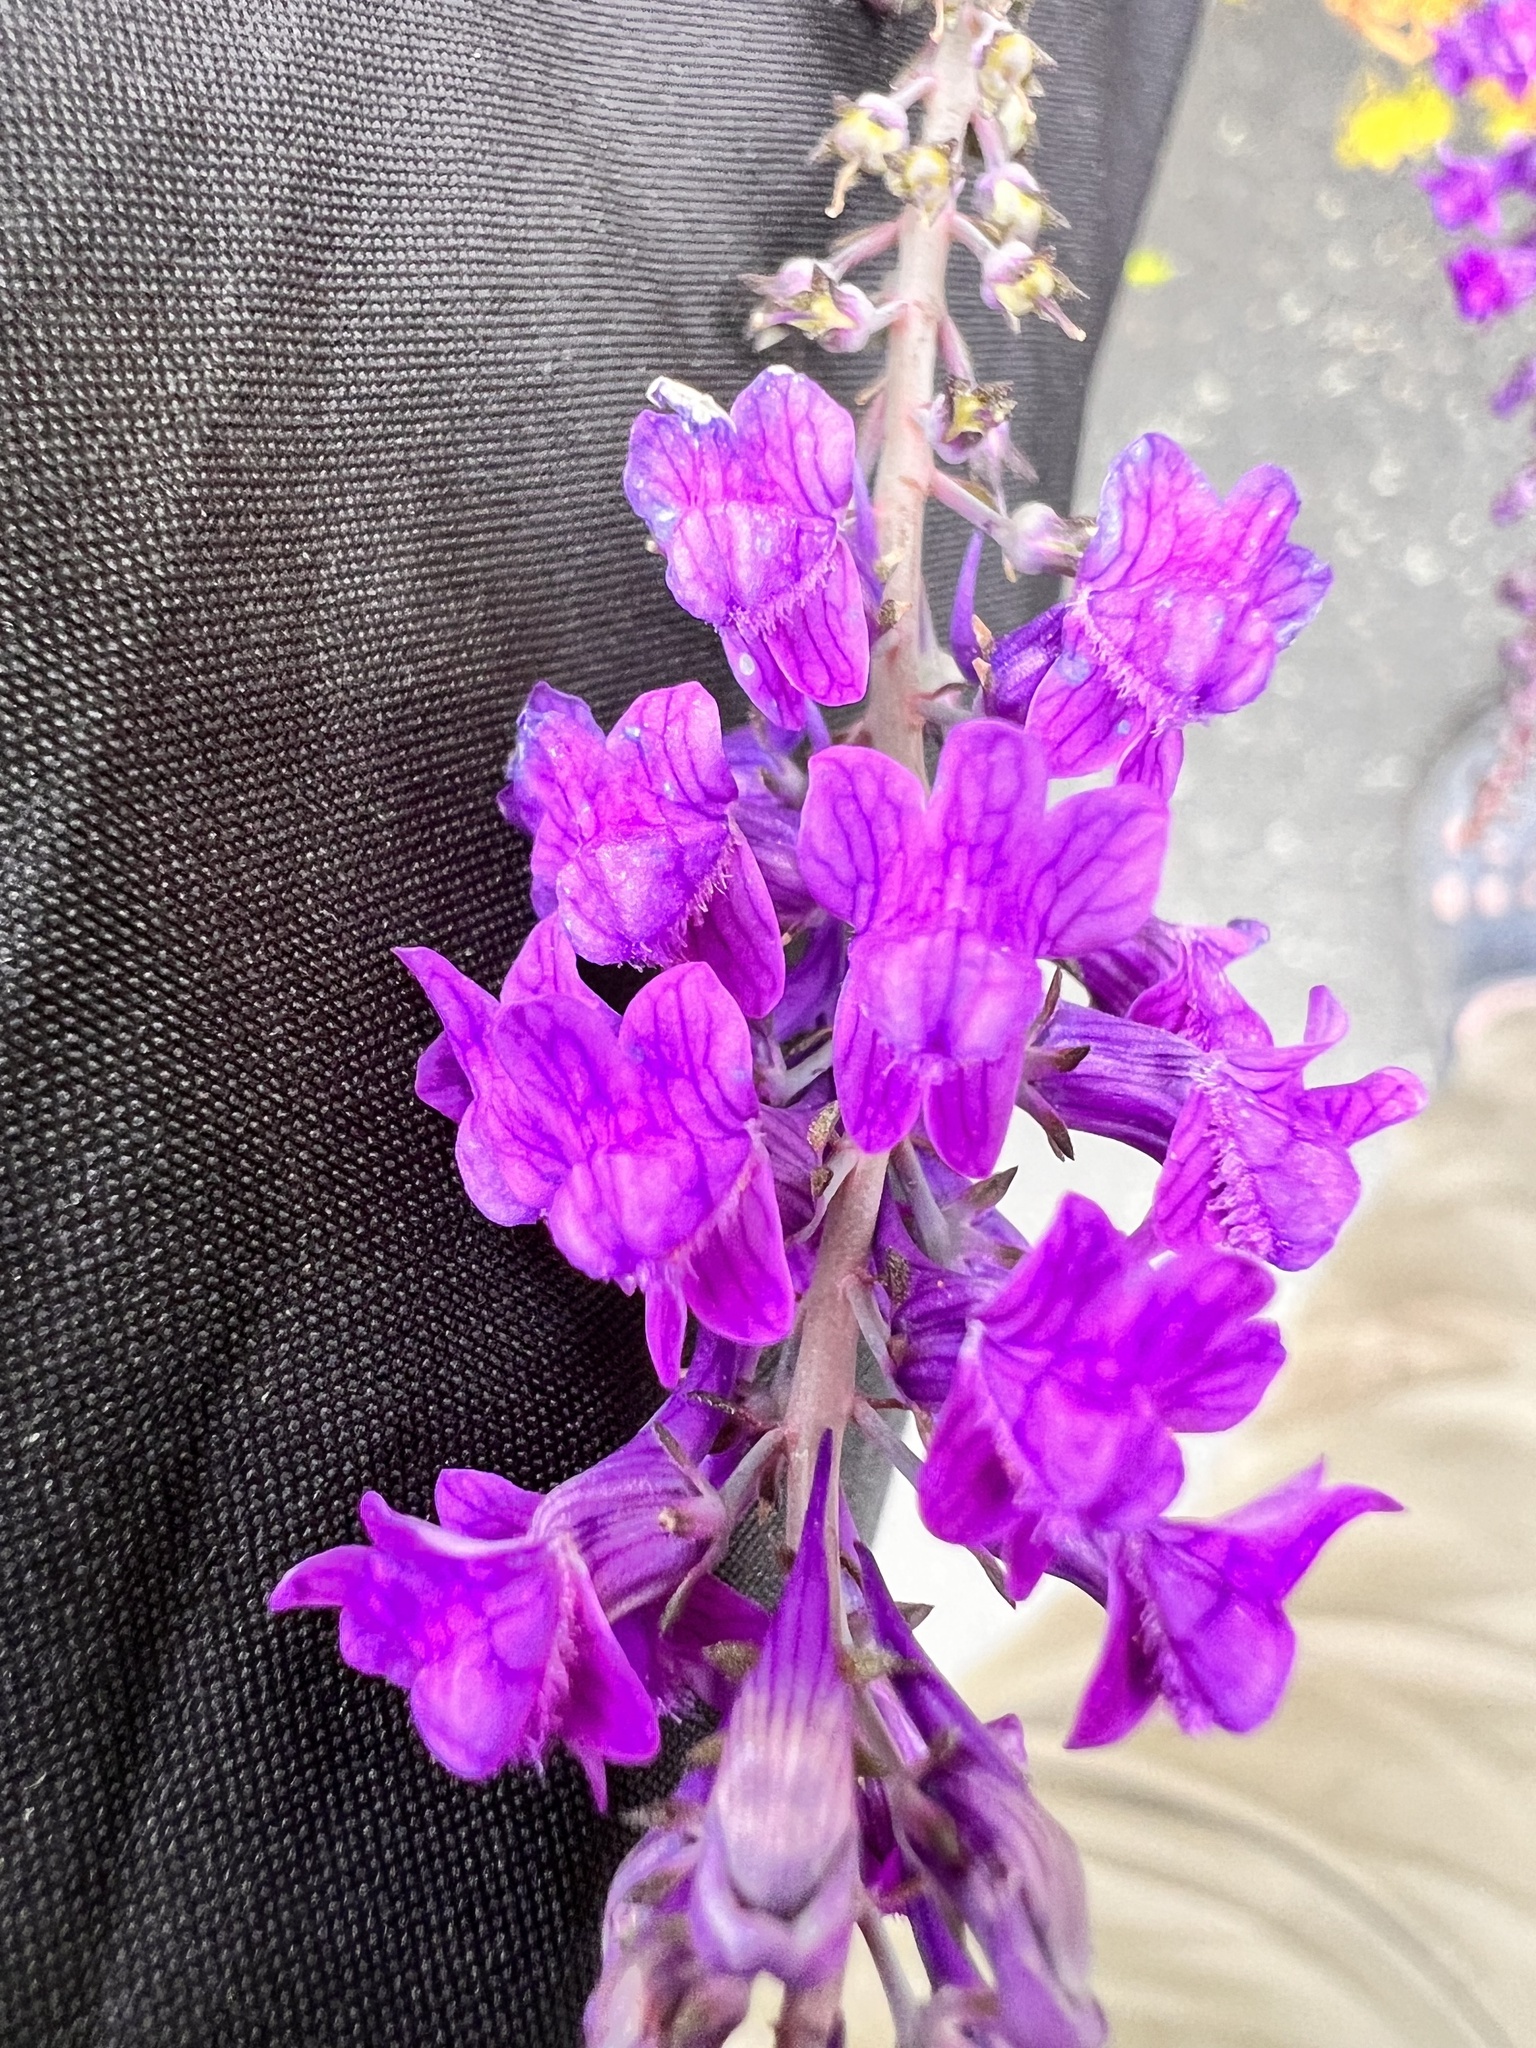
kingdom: Plantae
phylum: Tracheophyta
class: Magnoliopsida
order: Lamiales
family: Plantaginaceae
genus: Linaria
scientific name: Linaria purpurea
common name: Purple toadflax
